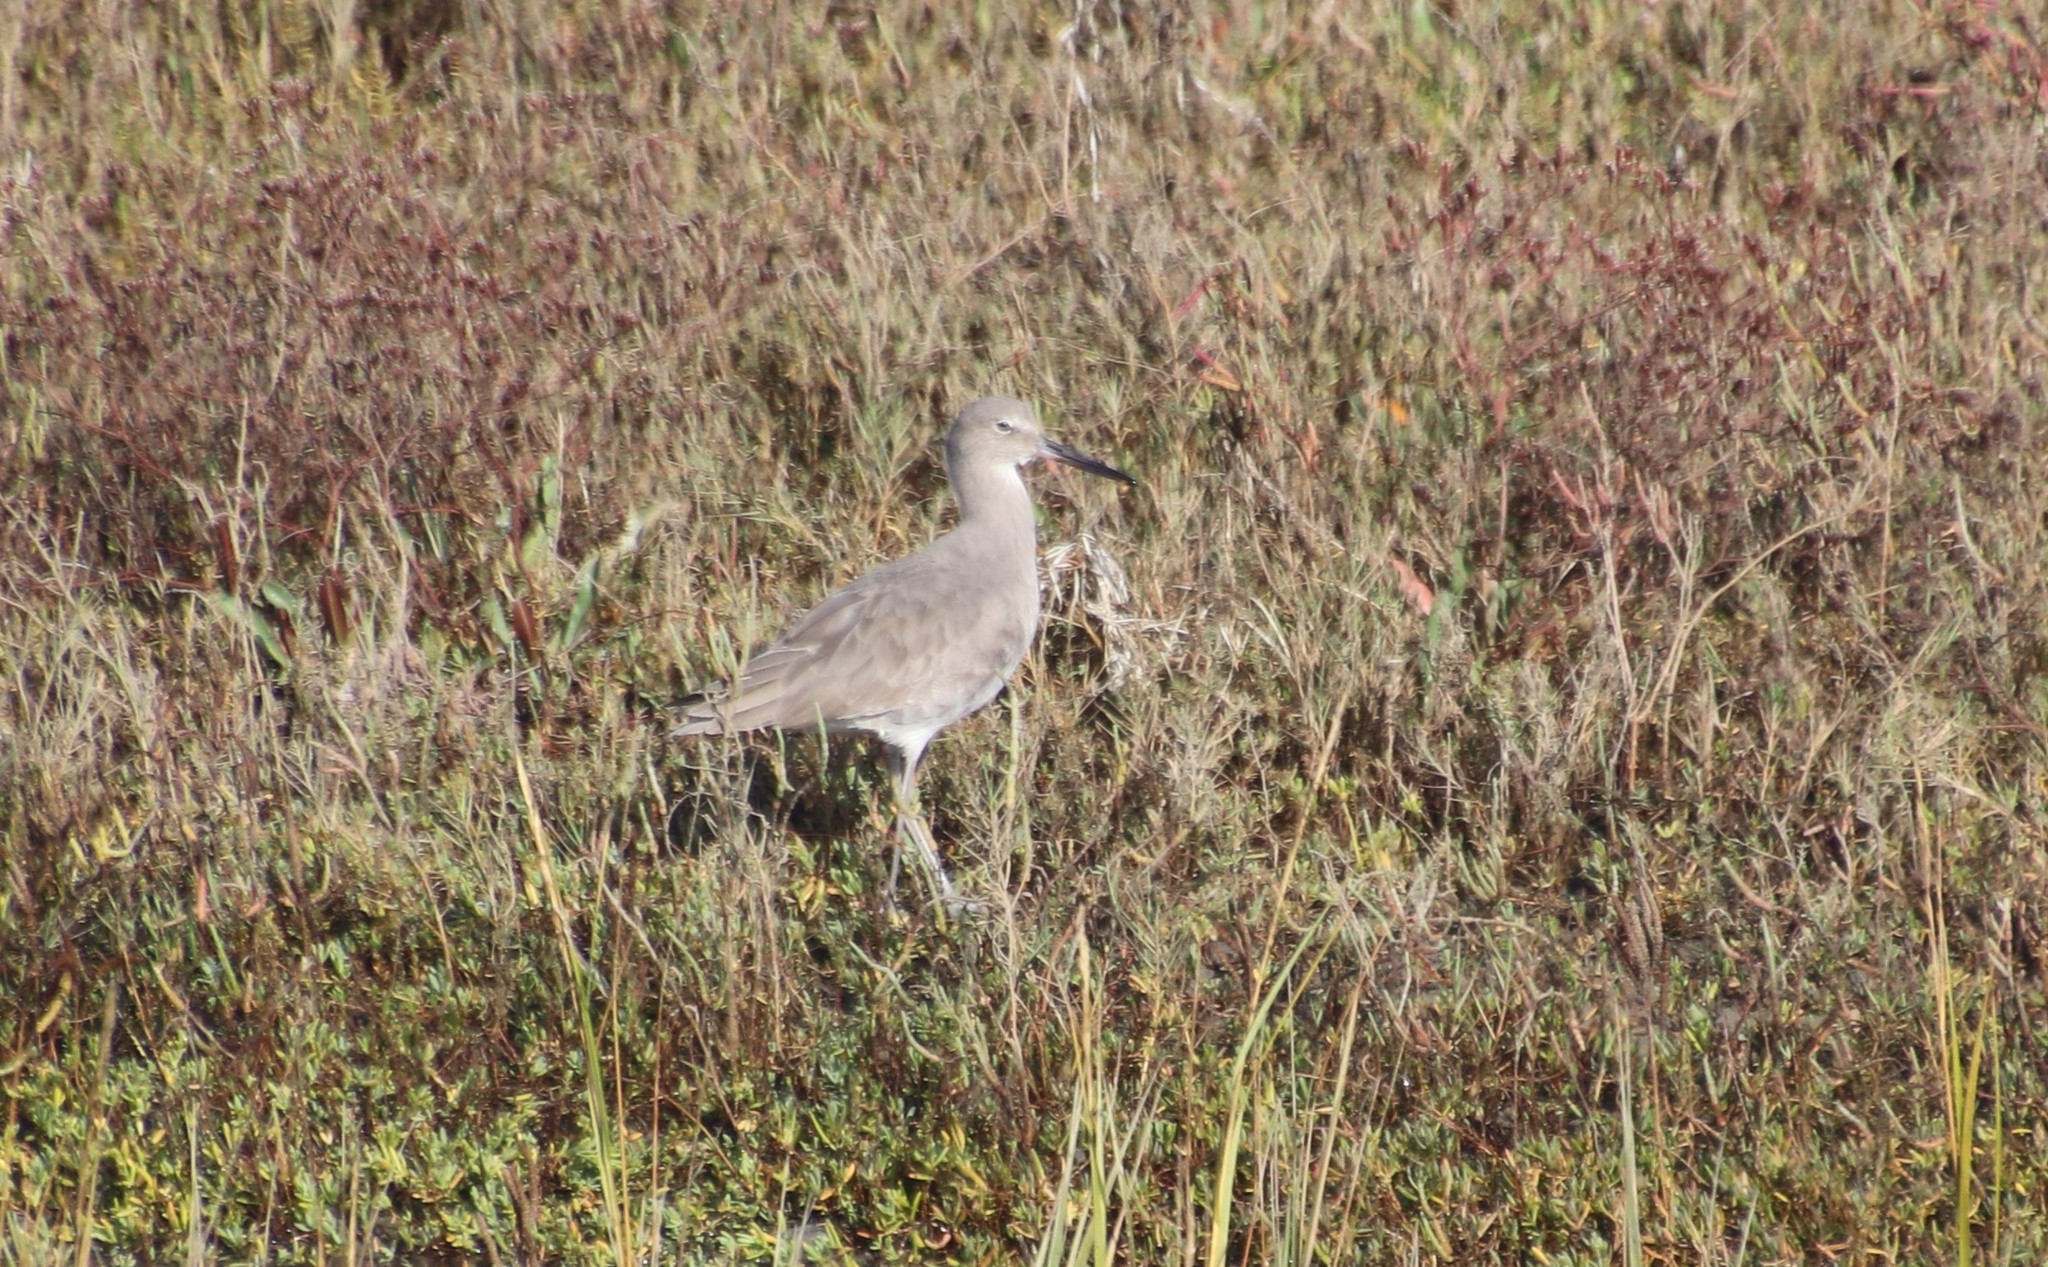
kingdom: Animalia
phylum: Chordata
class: Aves
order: Charadriiformes
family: Scolopacidae
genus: Tringa
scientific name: Tringa semipalmata
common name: Willet
